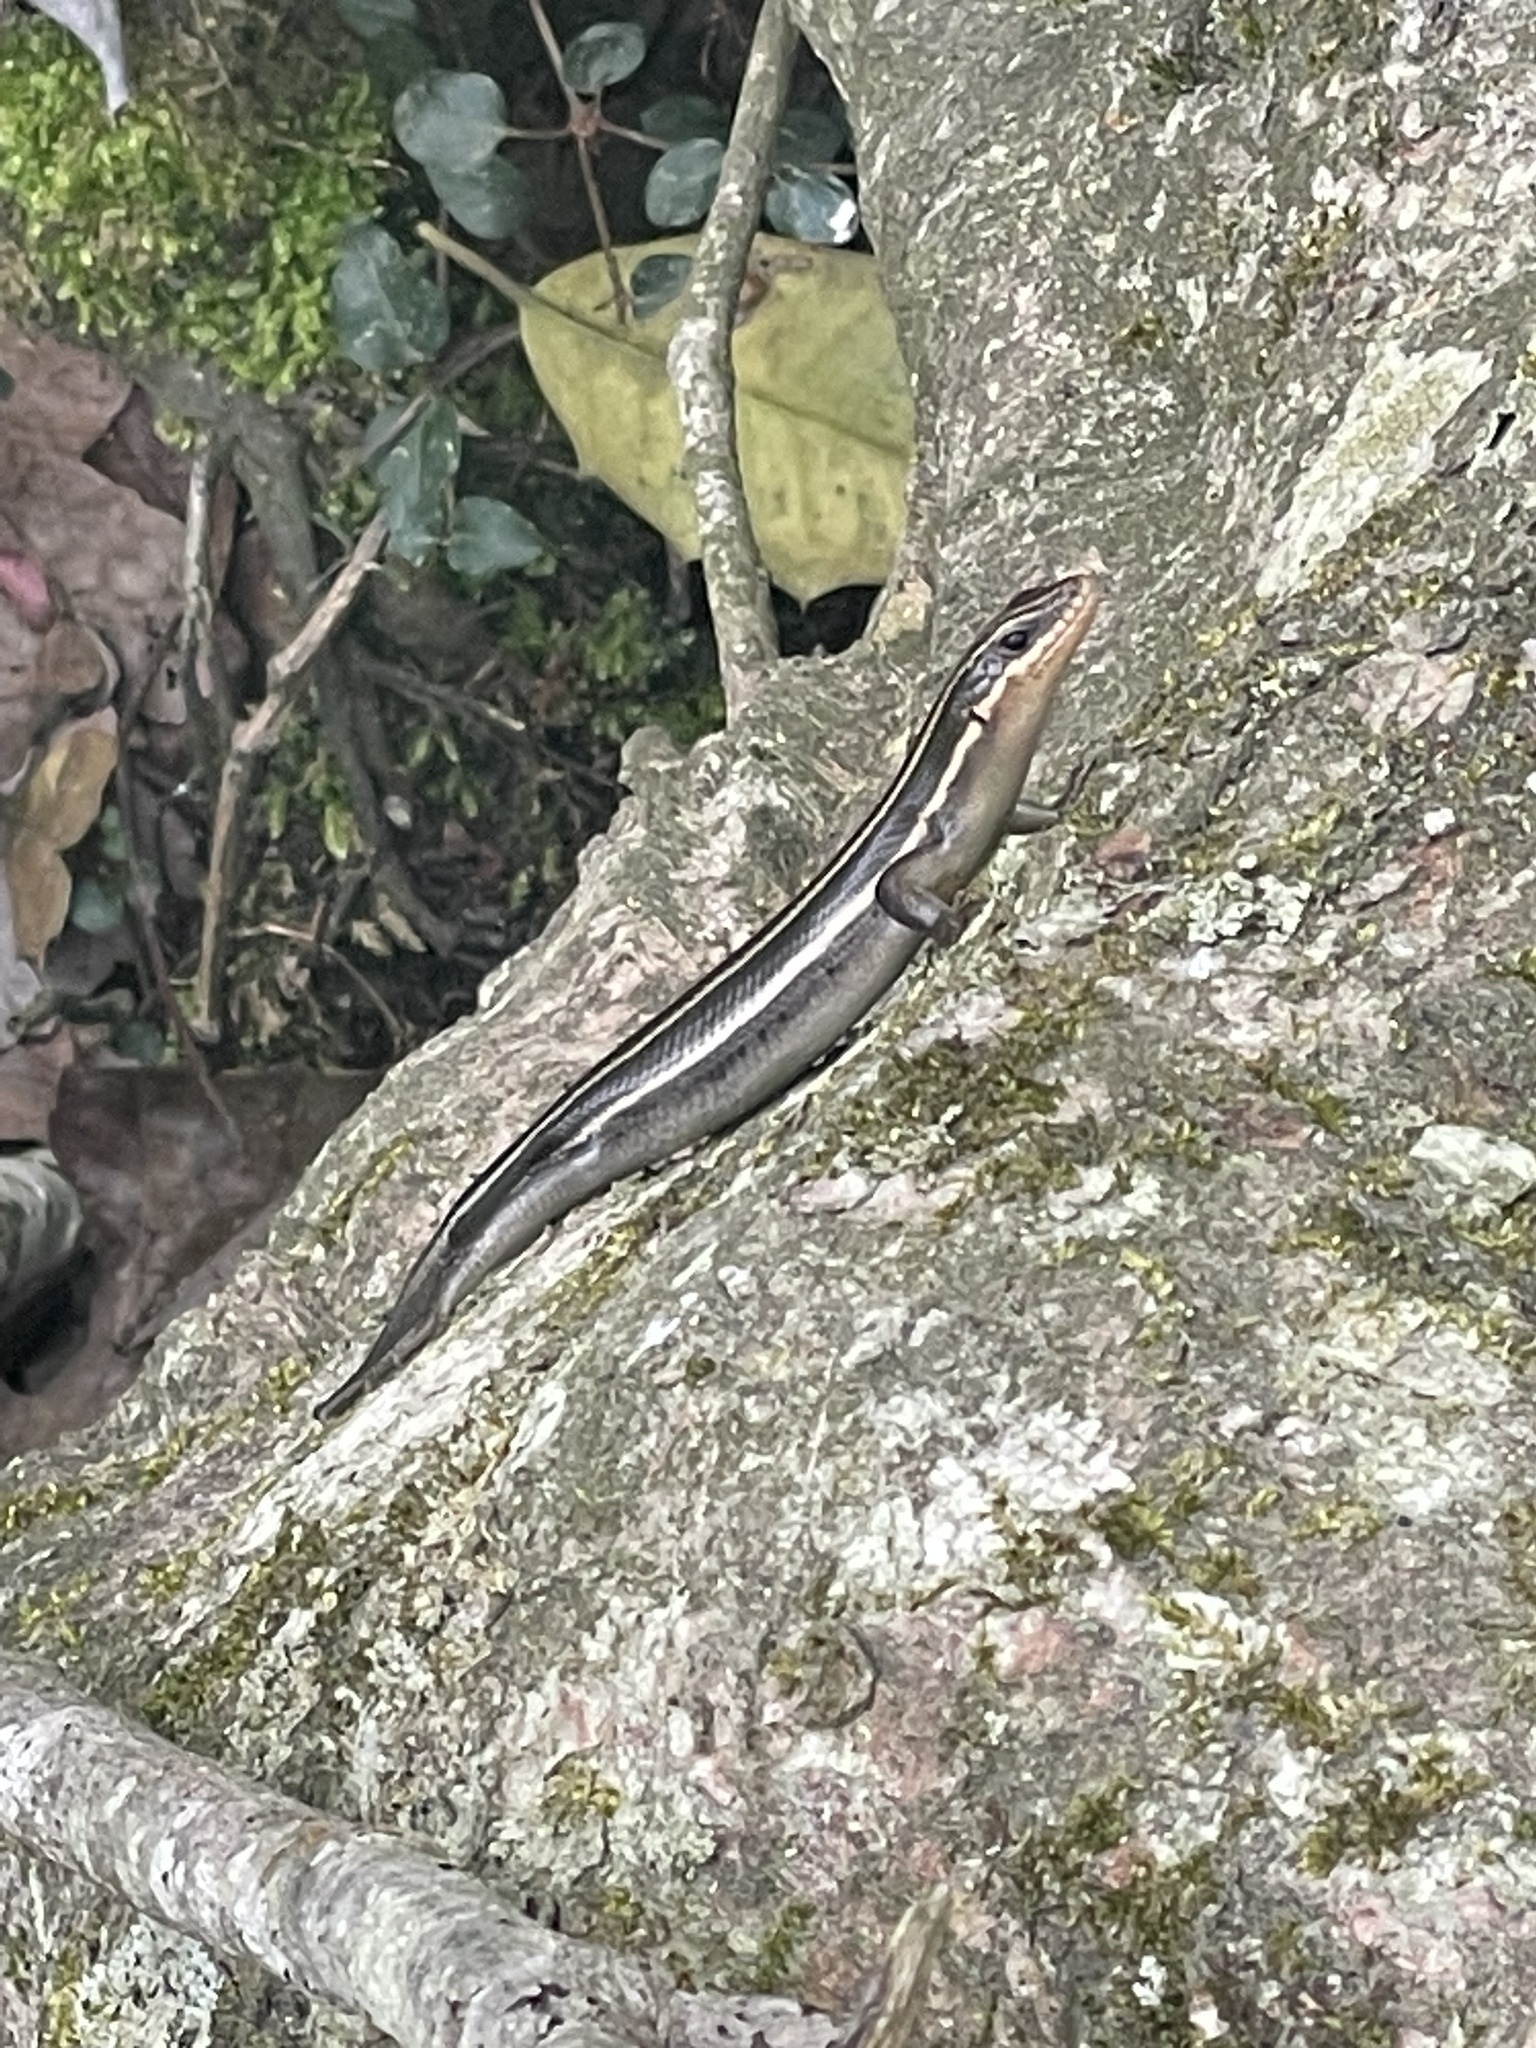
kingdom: Animalia
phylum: Chordata
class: Squamata
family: Scincidae
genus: Plestiodon
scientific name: Plestiodon fasciatus
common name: Five-lined skink
